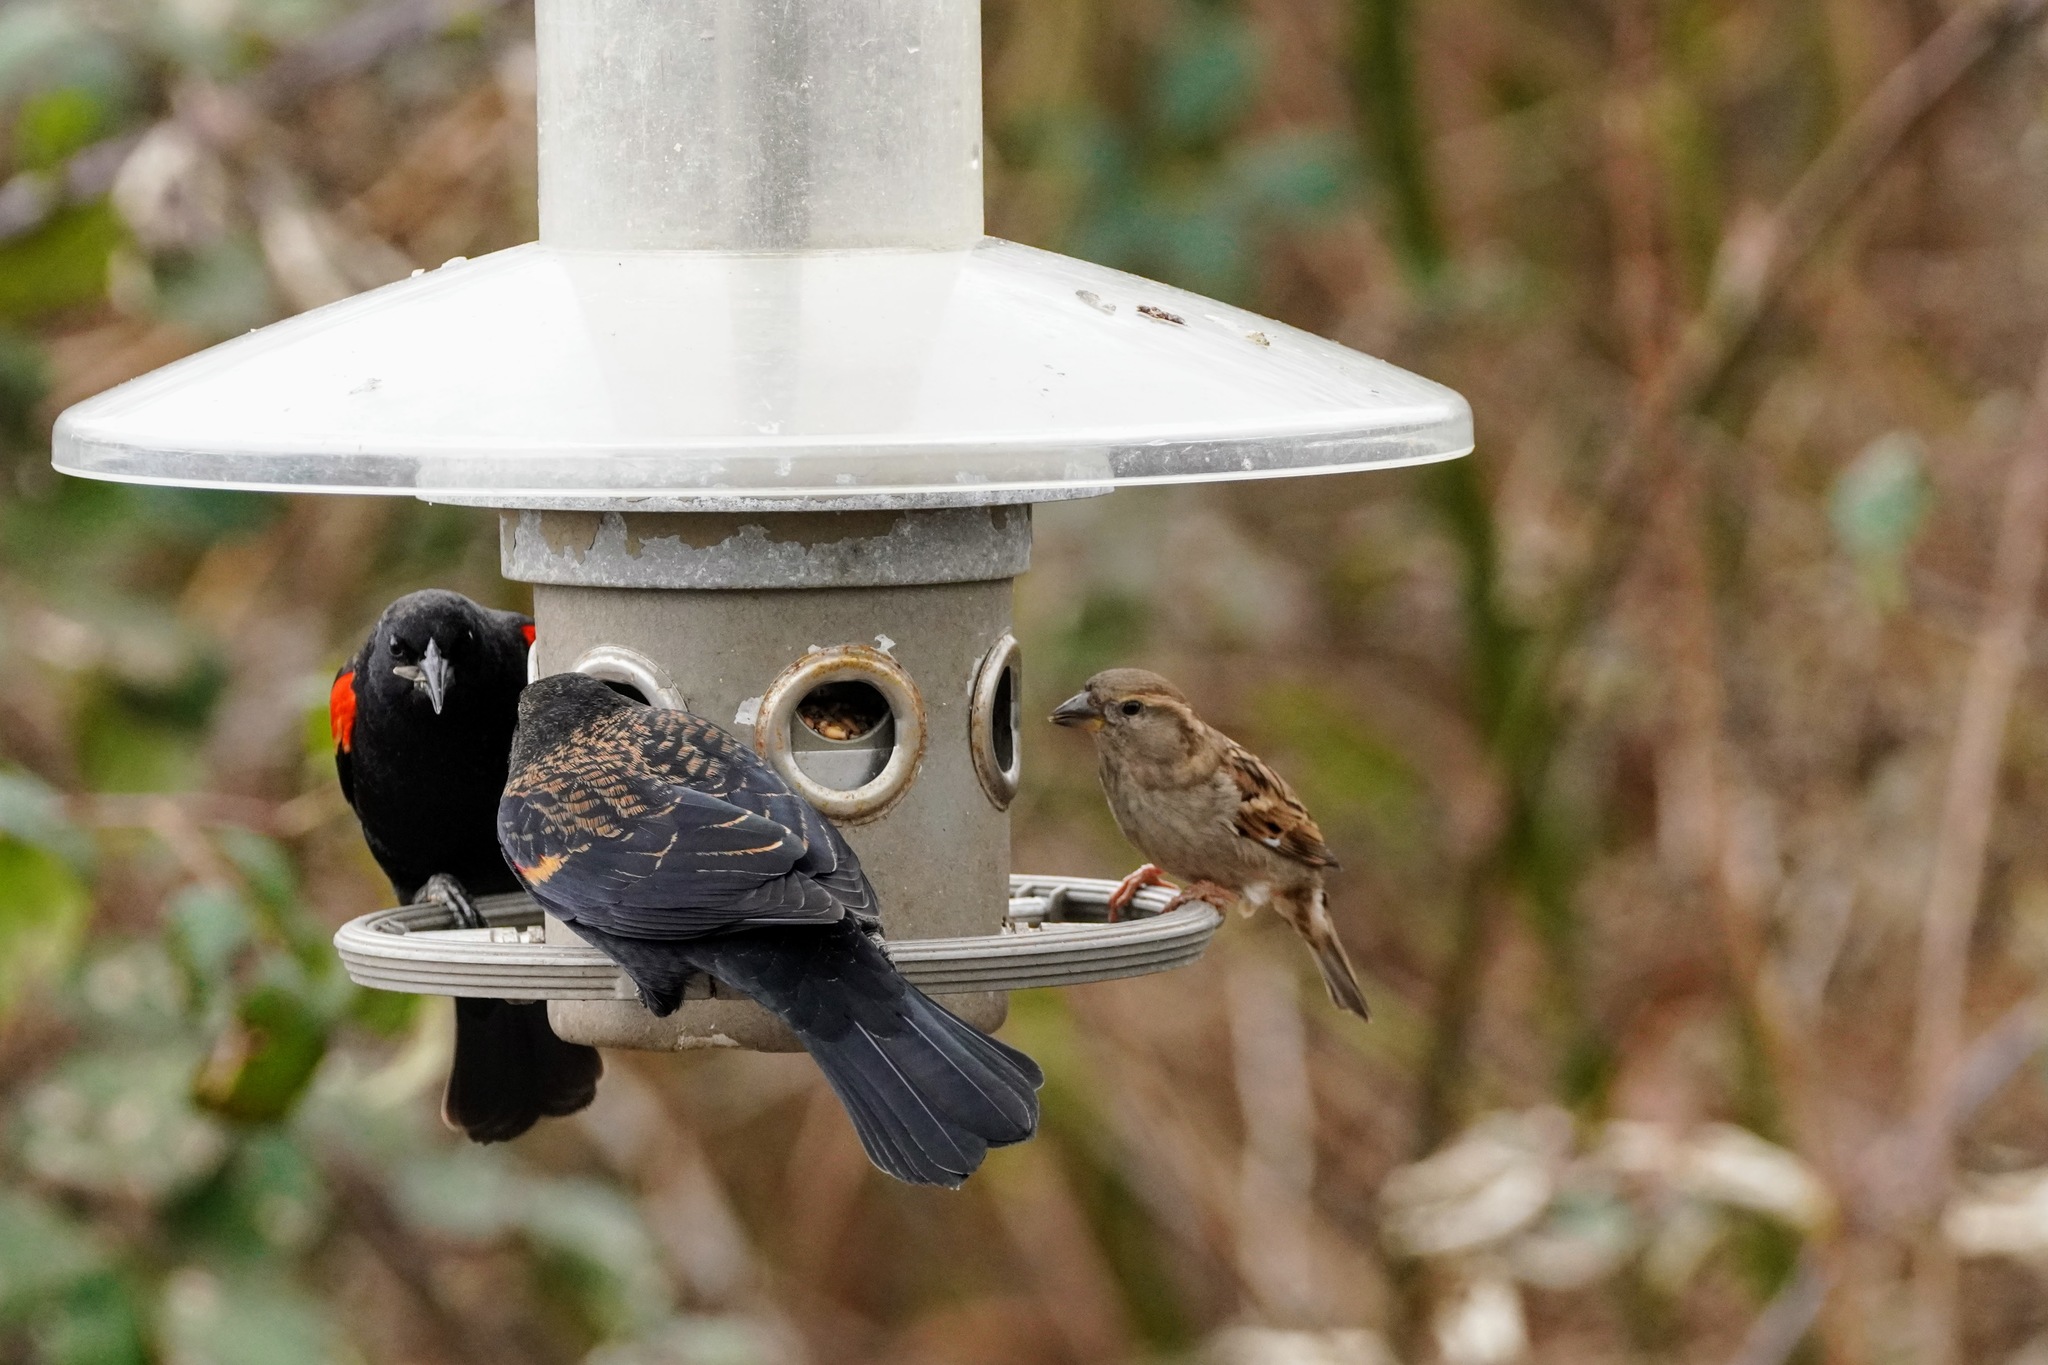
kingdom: Animalia
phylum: Chordata
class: Aves
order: Passeriformes
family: Icteridae
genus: Agelaius
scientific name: Agelaius phoeniceus
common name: Red-winged blackbird
